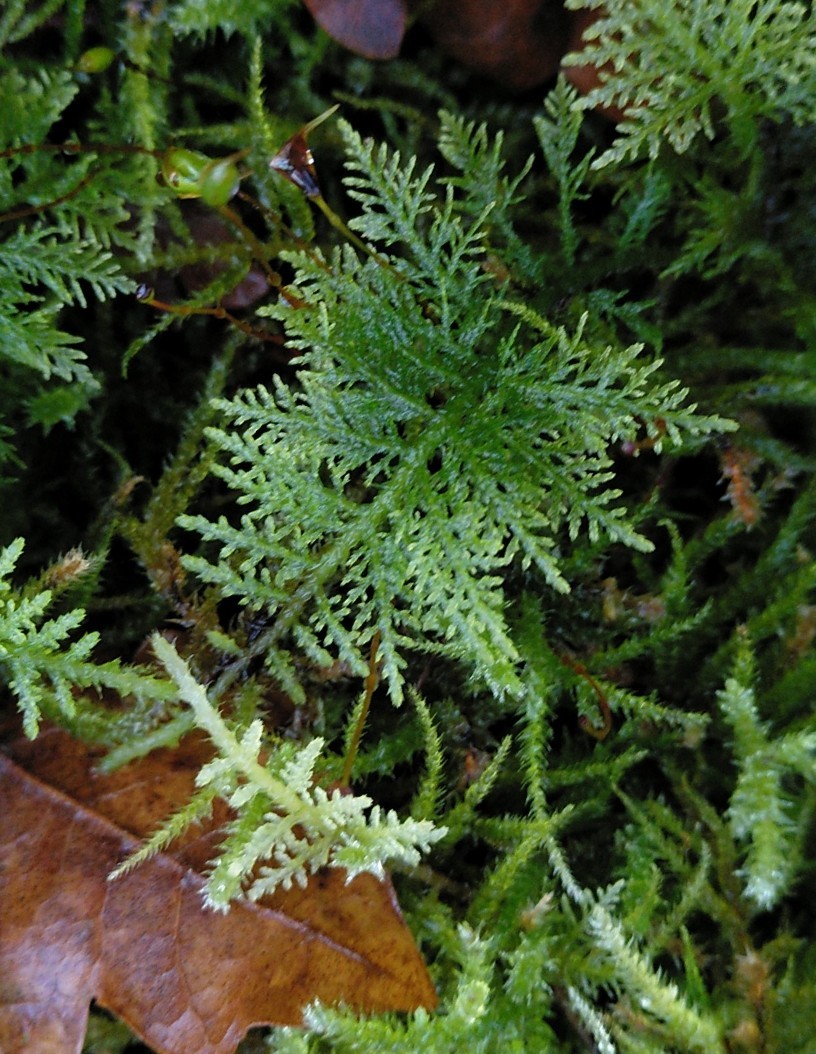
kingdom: Plantae
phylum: Bryophyta
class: Bryopsida
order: Hypnales
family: Thuidiaceae
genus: Thuidium
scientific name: Thuidium tamariscinum
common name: Common tamarisk-moss
